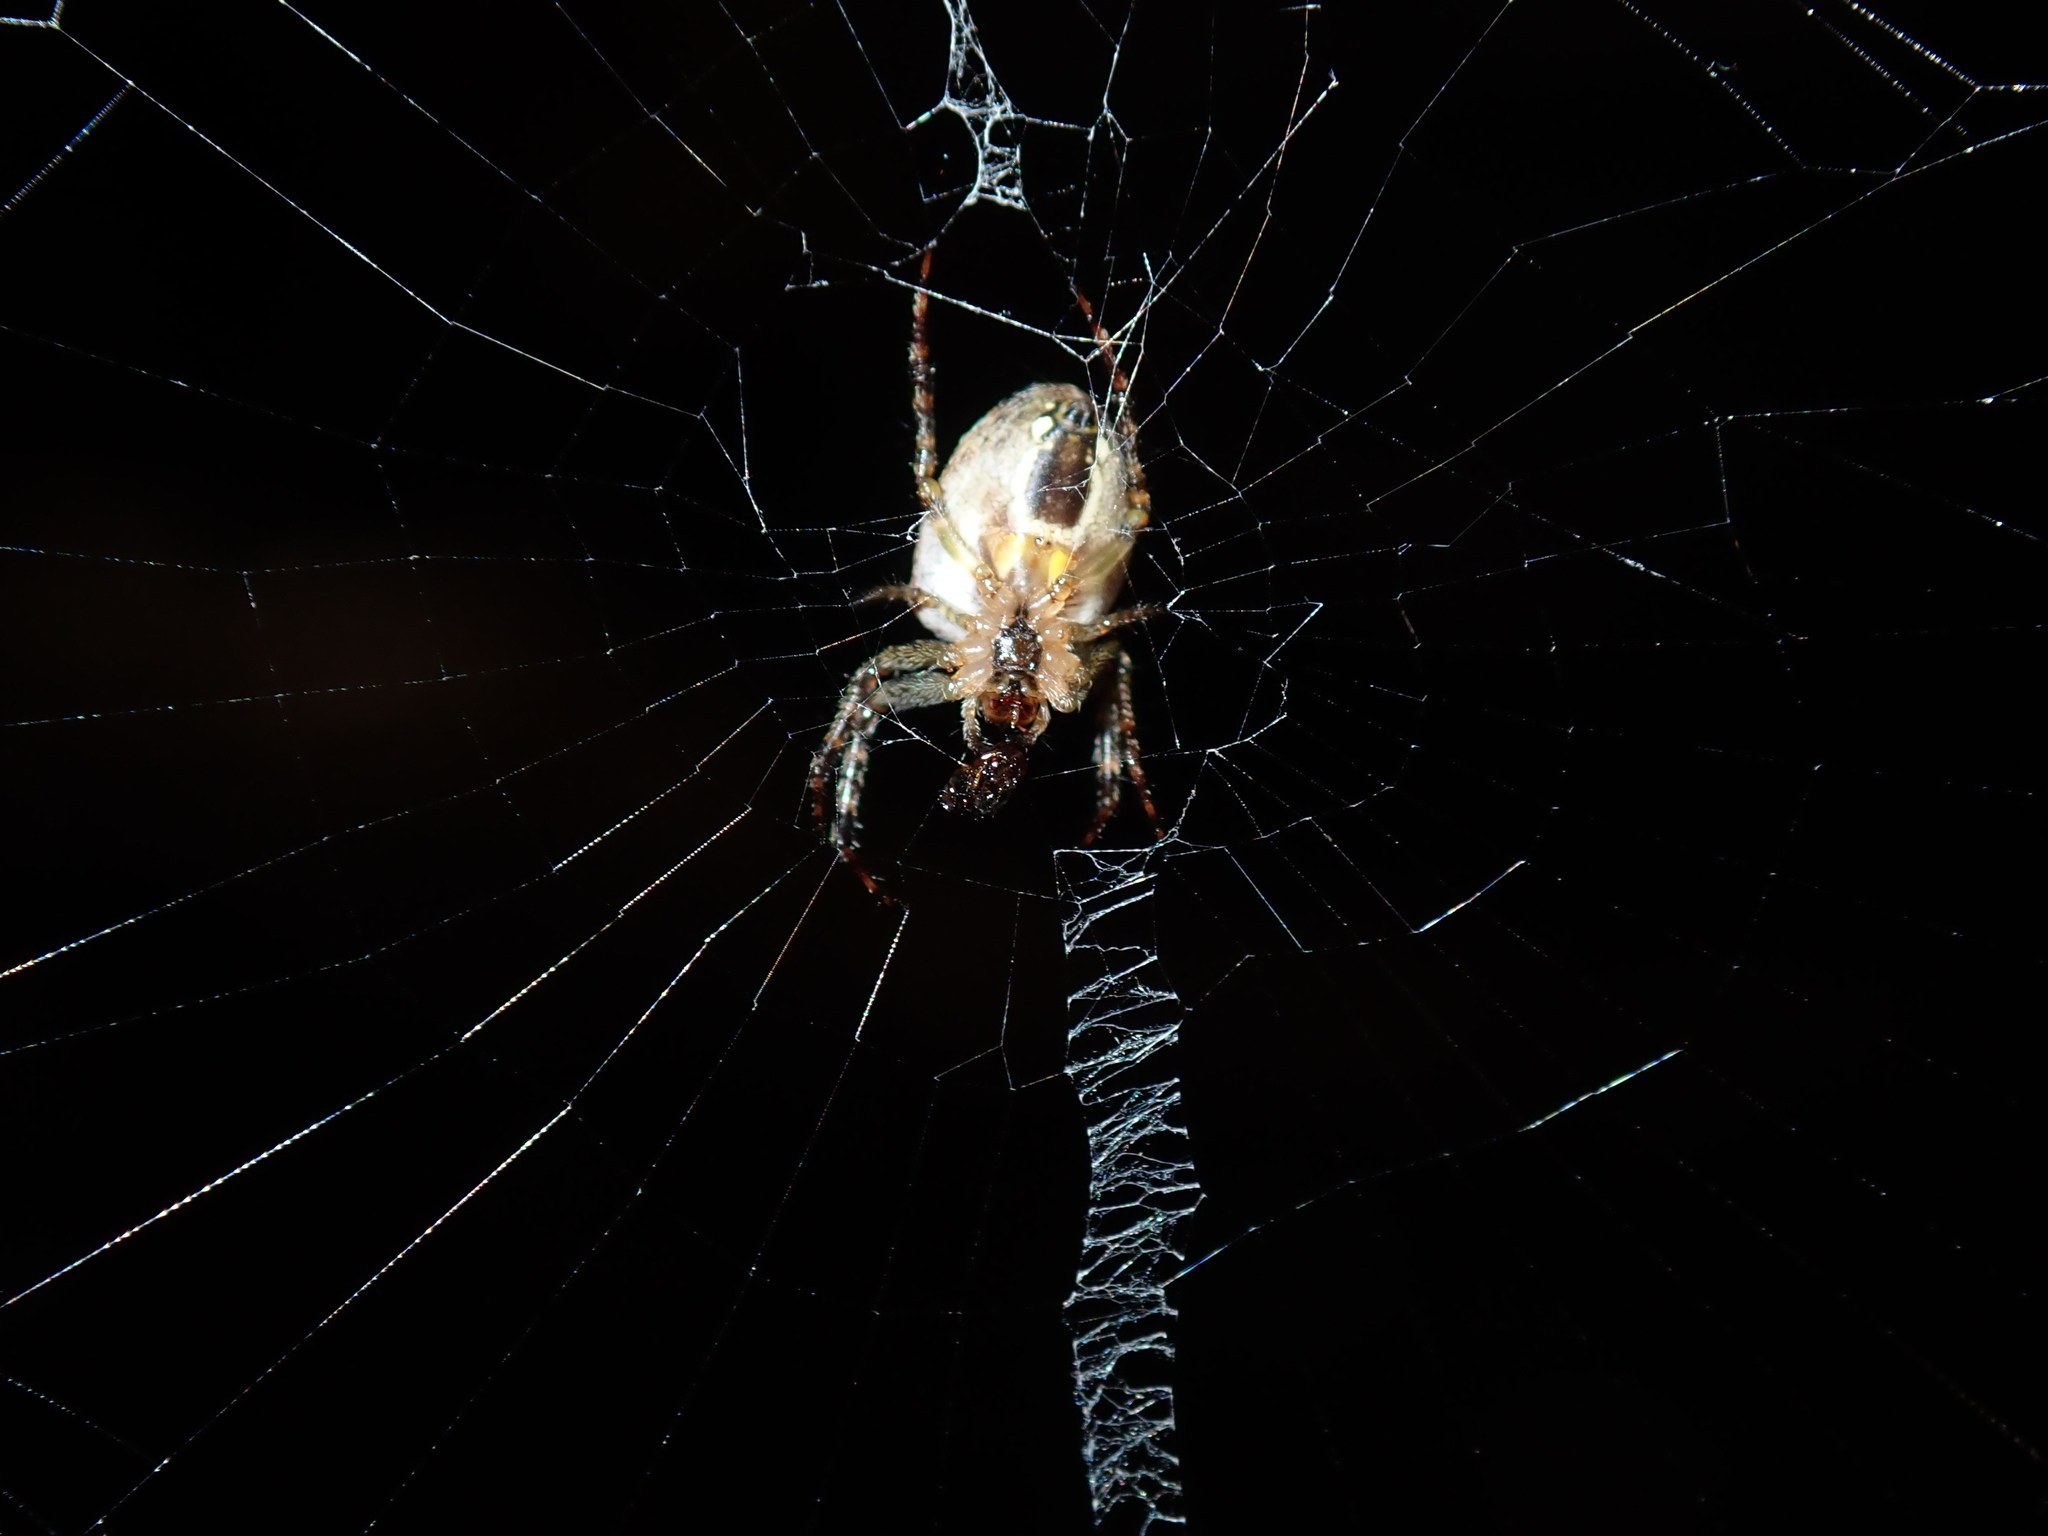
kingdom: Animalia
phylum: Arthropoda
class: Arachnida
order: Araneae
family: Araneidae
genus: Plebs
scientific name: Plebs eburnus
